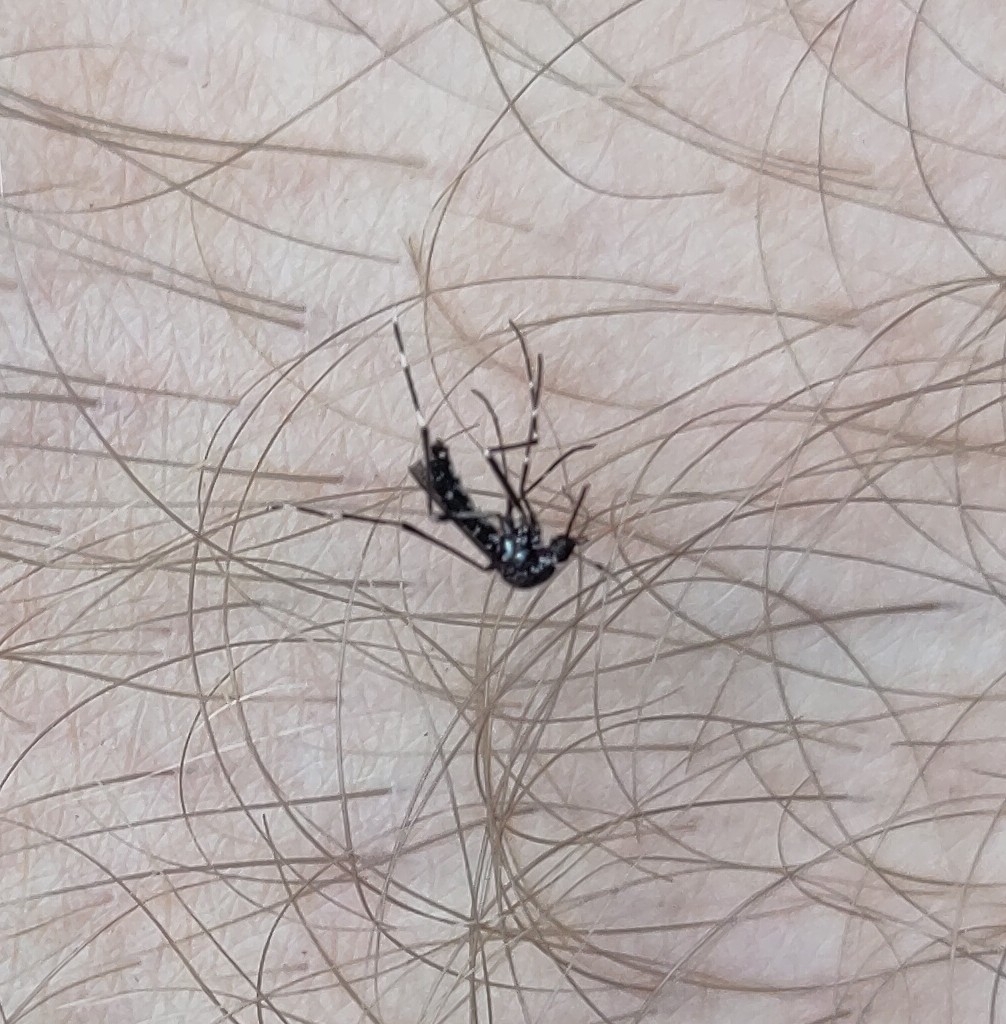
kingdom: Animalia
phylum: Arthropoda
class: Insecta
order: Diptera
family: Culicidae
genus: Aedes
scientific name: Aedes albopictus
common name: Tiger mosquito
